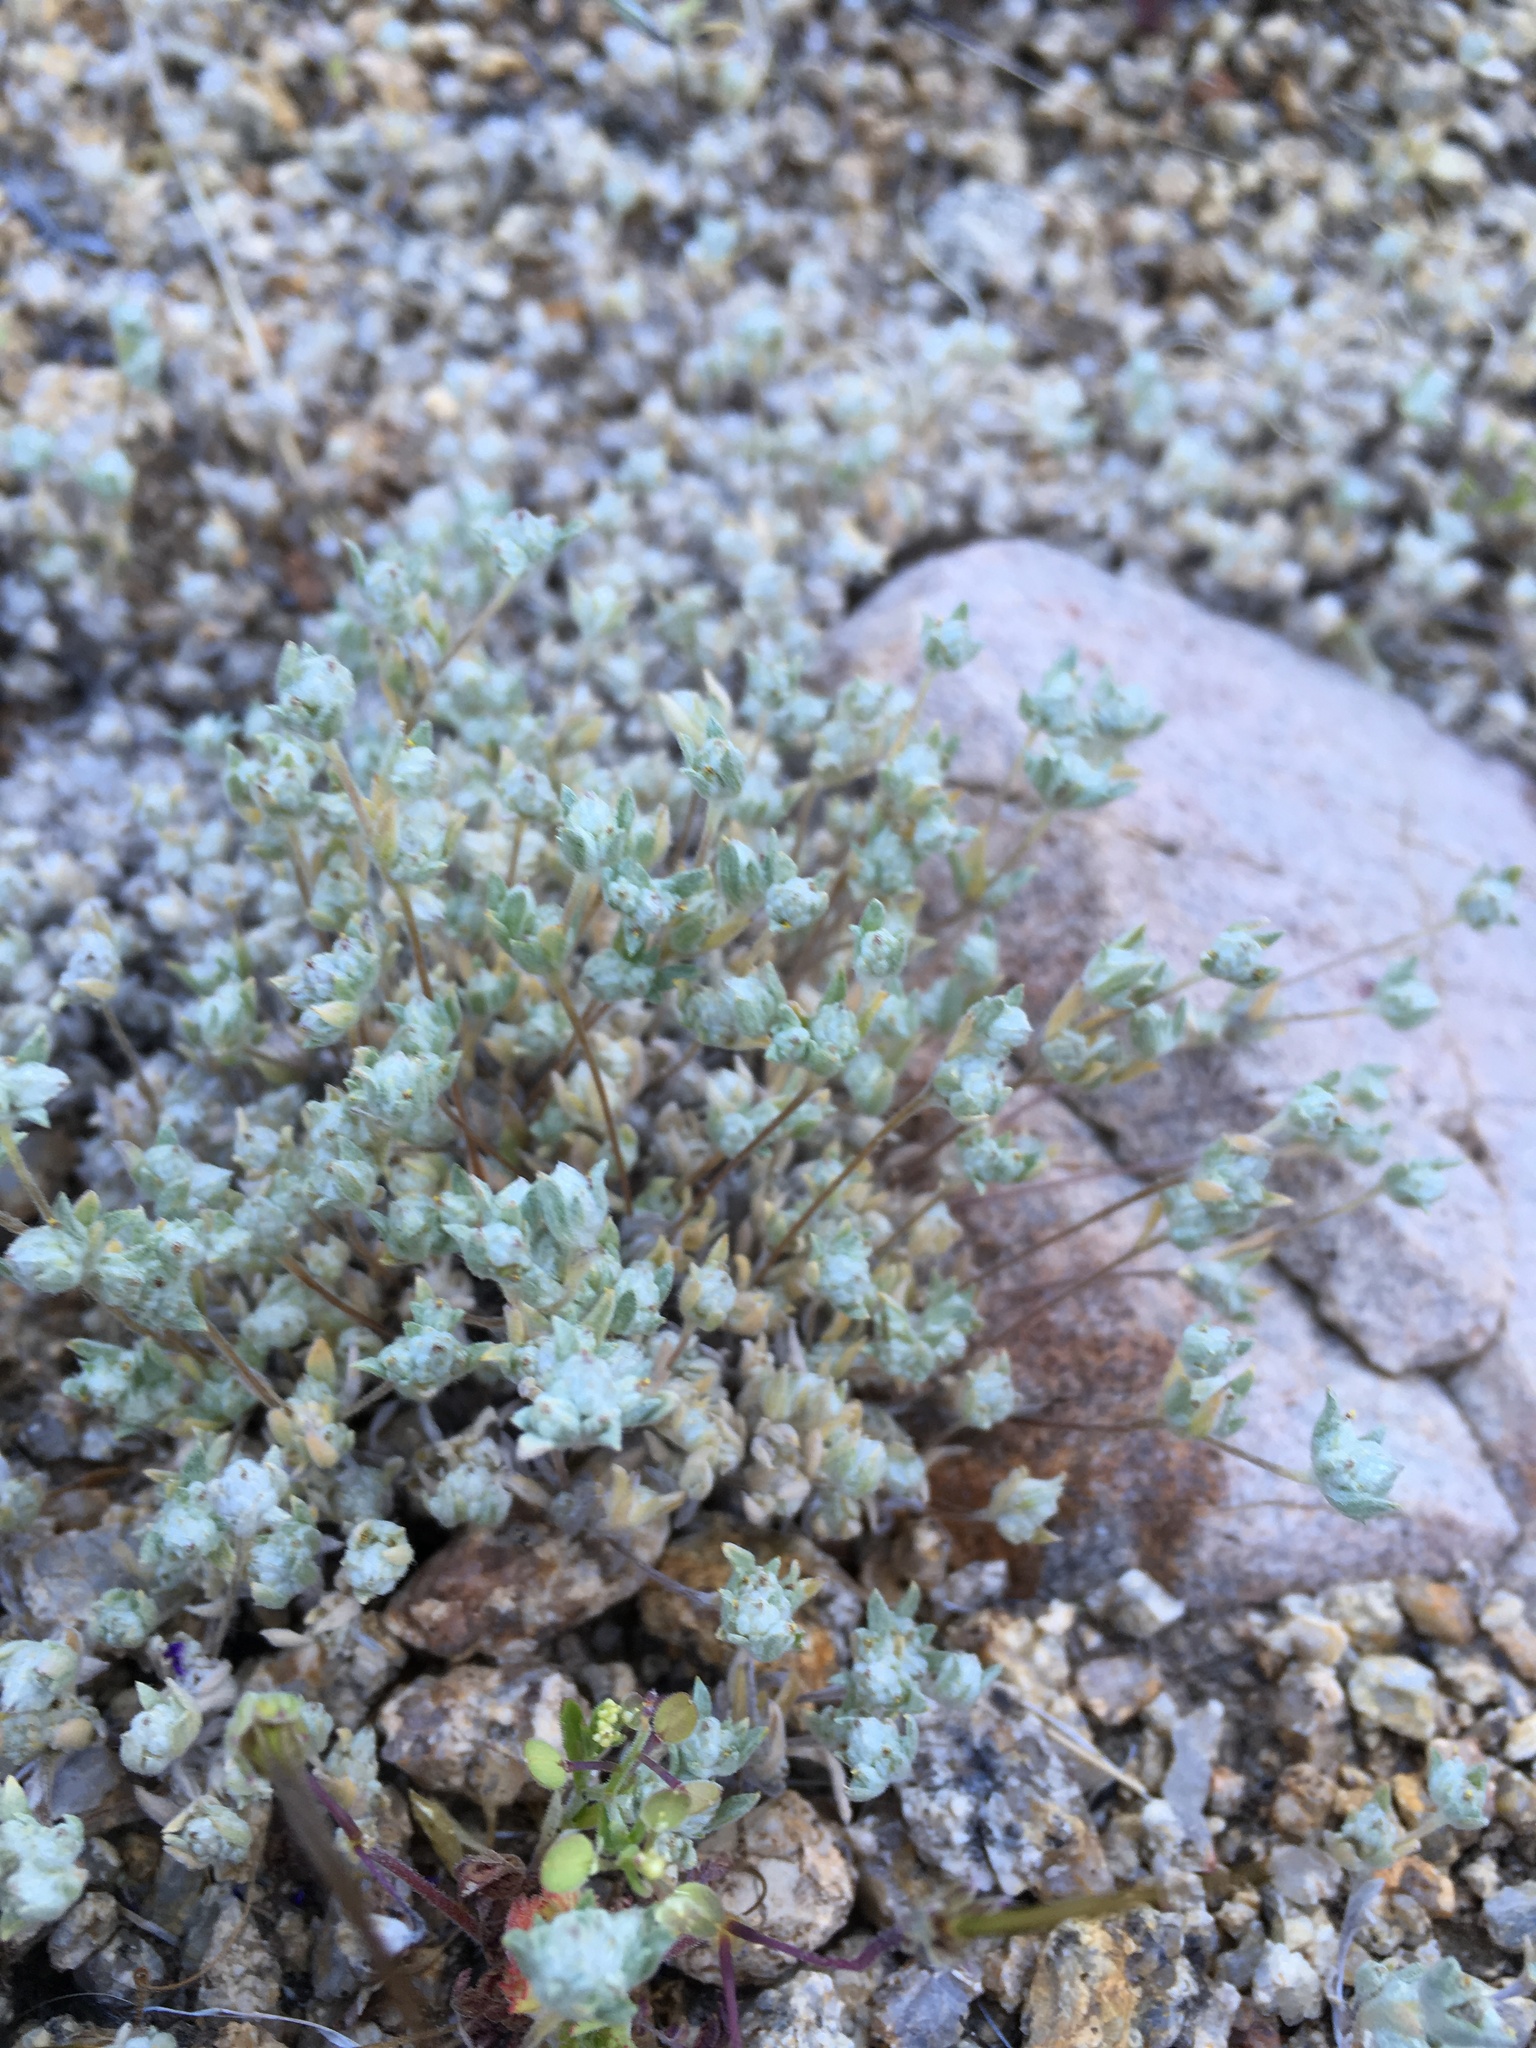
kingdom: Plantae
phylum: Tracheophyta
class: Magnoliopsida
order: Asterales
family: Asteraceae
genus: Logfia
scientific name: Logfia depressa
